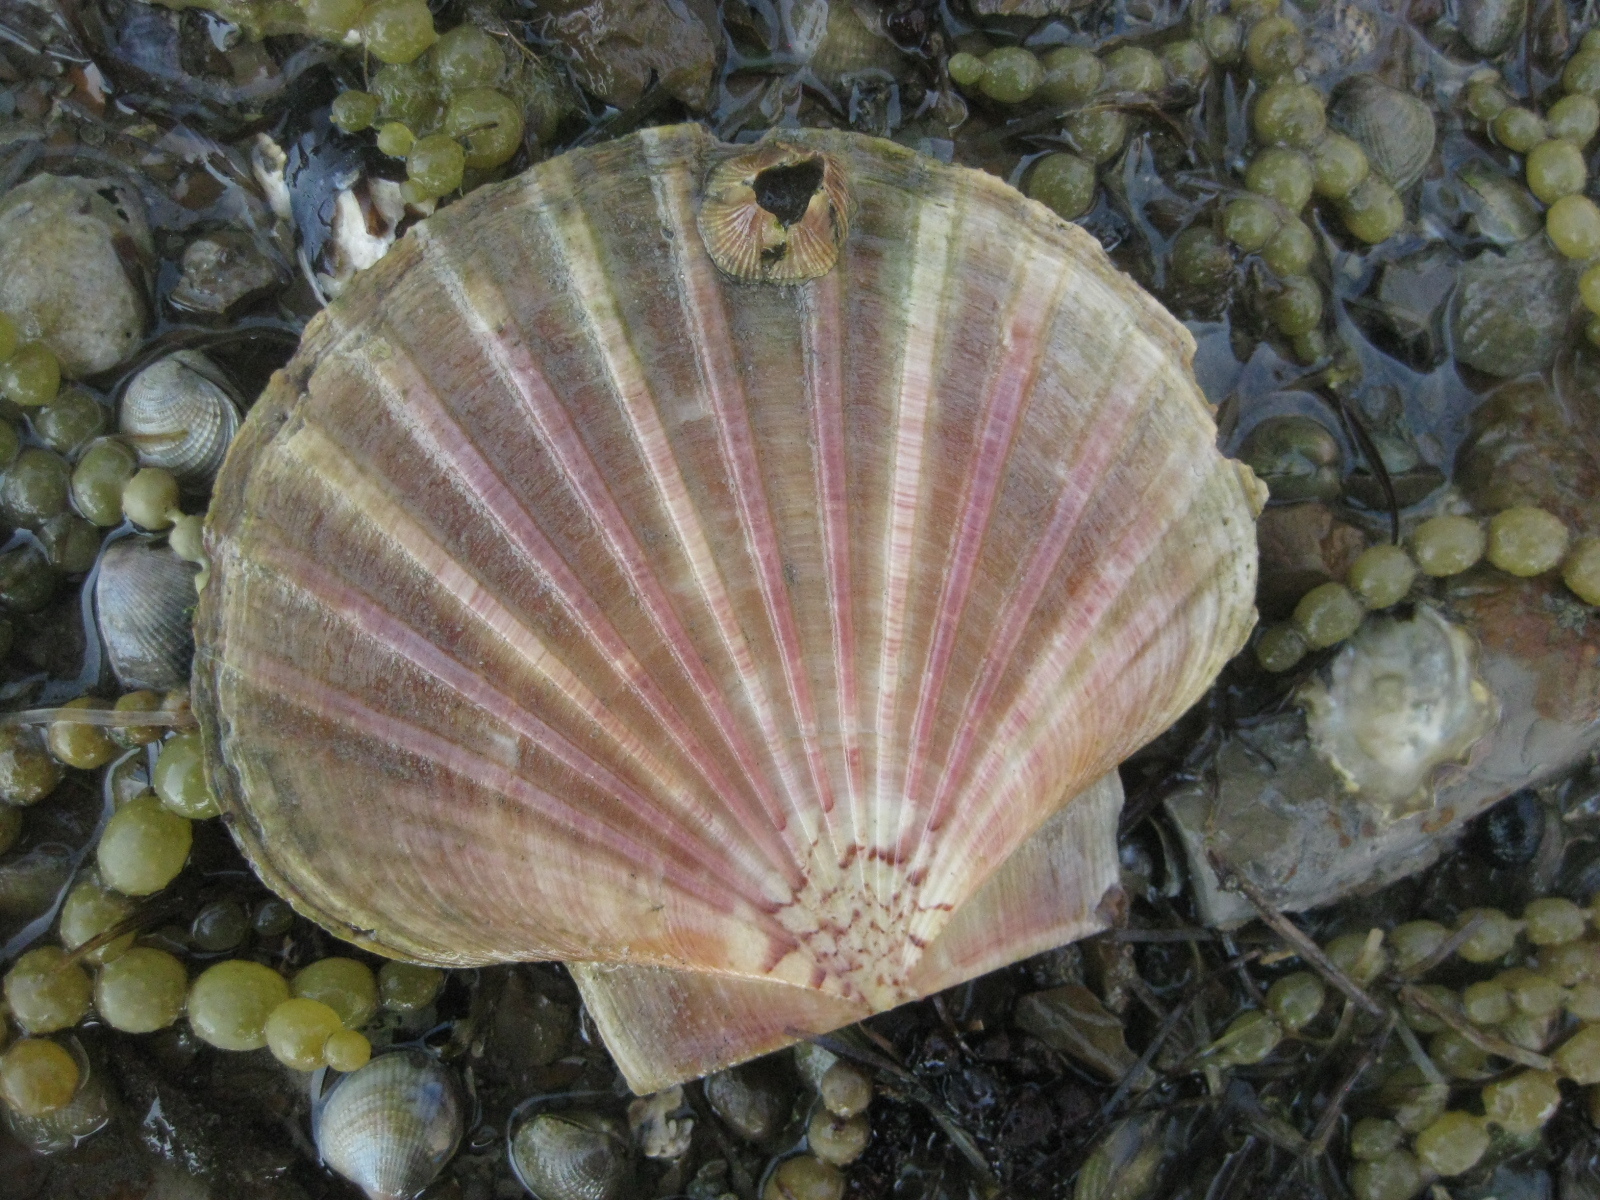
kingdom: Animalia
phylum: Mollusca
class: Bivalvia
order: Pectinida
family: Pectinidae
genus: Pecten
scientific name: Pecten novaezelandiae
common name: New zealand scallop
